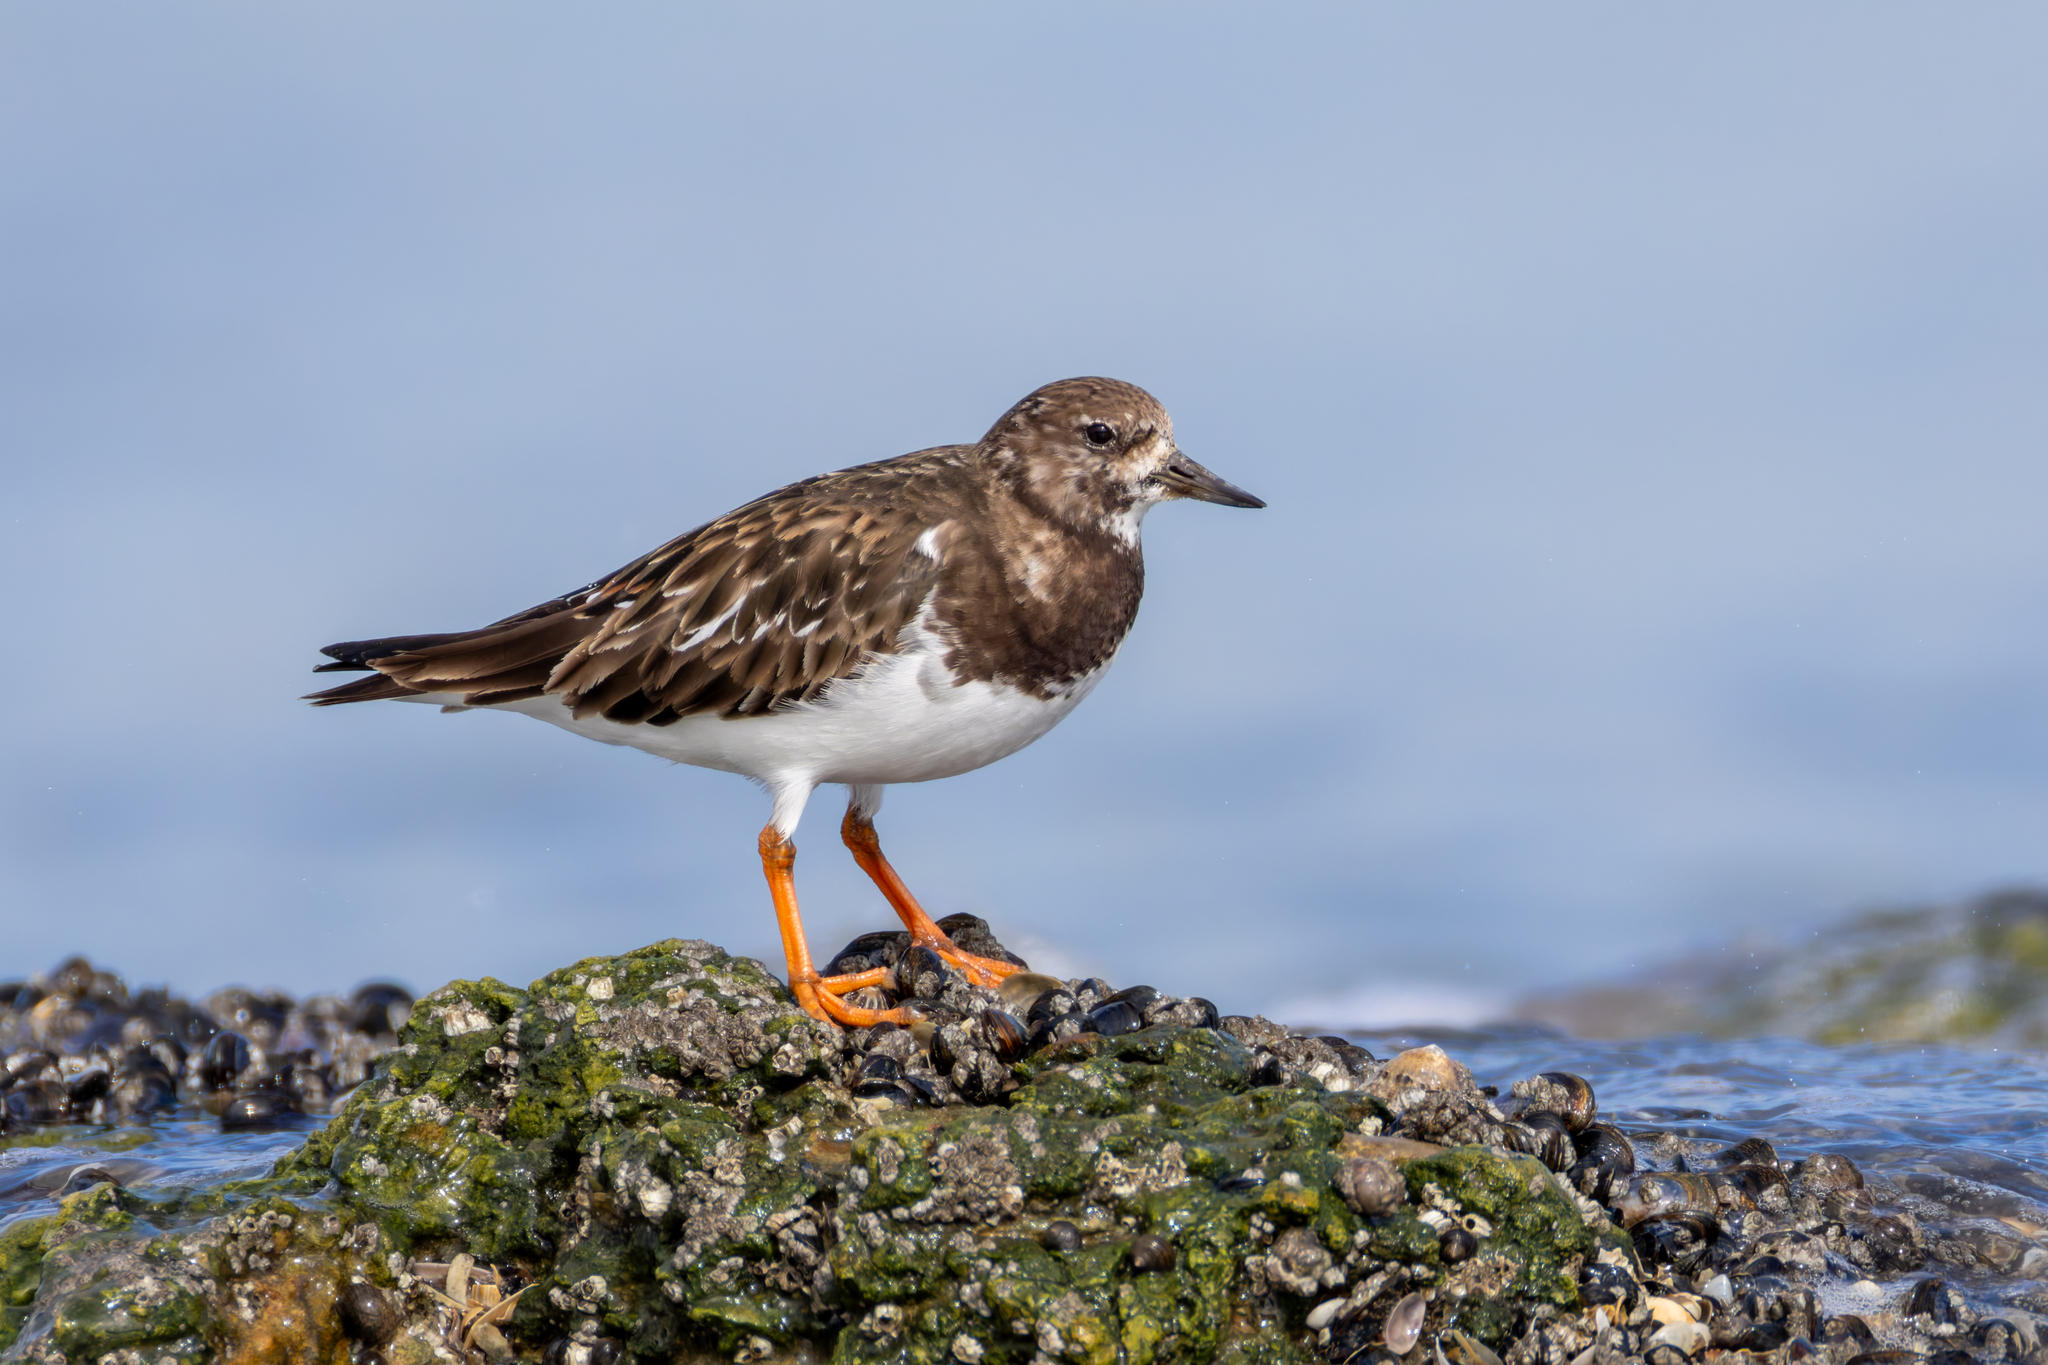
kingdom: Animalia
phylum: Chordata
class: Aves
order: Charadriiformes
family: Scolopacidae
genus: Arenaria
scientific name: Arenaria interpres
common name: Ruddy turnstone
